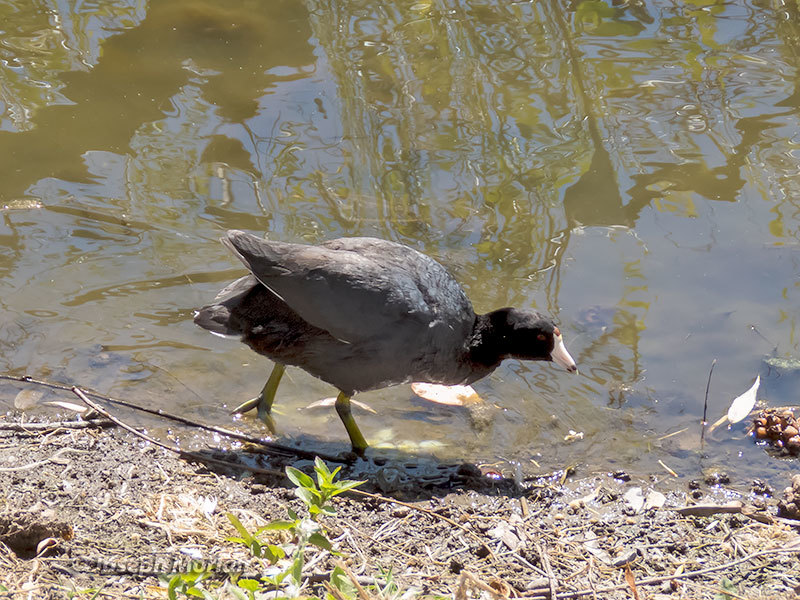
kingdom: Animalia
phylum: Chordata
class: Aves
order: Gruiformes
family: Rallidae
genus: Fulica
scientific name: Fulica americana
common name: American coot
